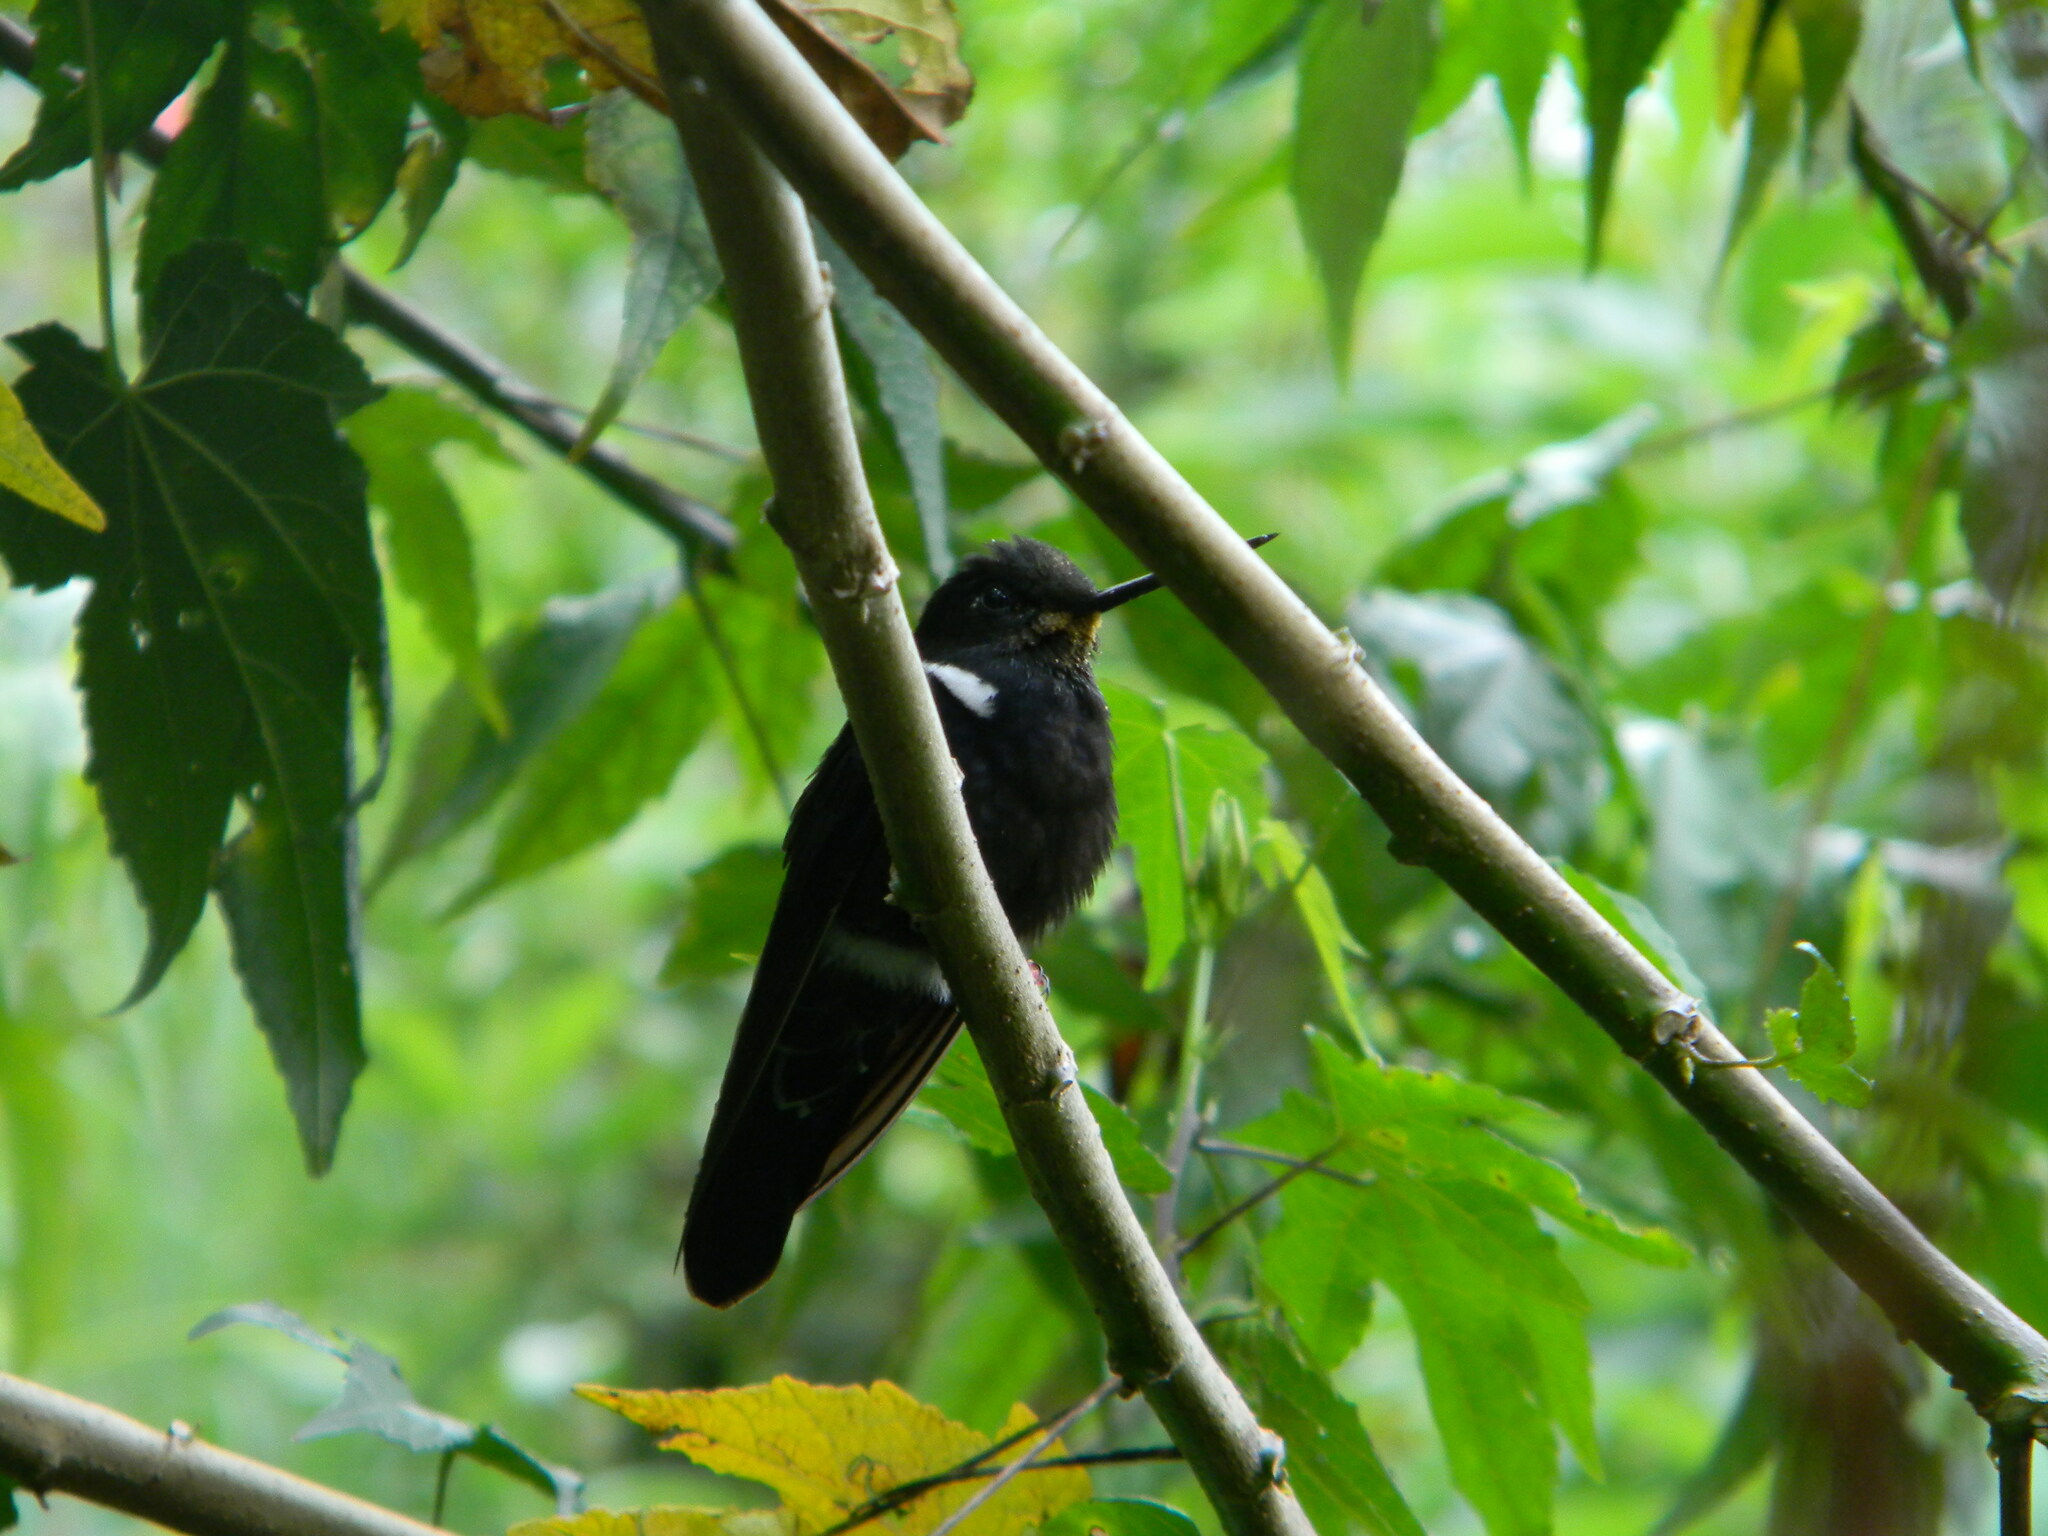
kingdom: Animalia
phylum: Chordata
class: Aves
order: Apodiformes
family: Trochilidae
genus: Coeligena
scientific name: Coeligena prunellei
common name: Black inca
